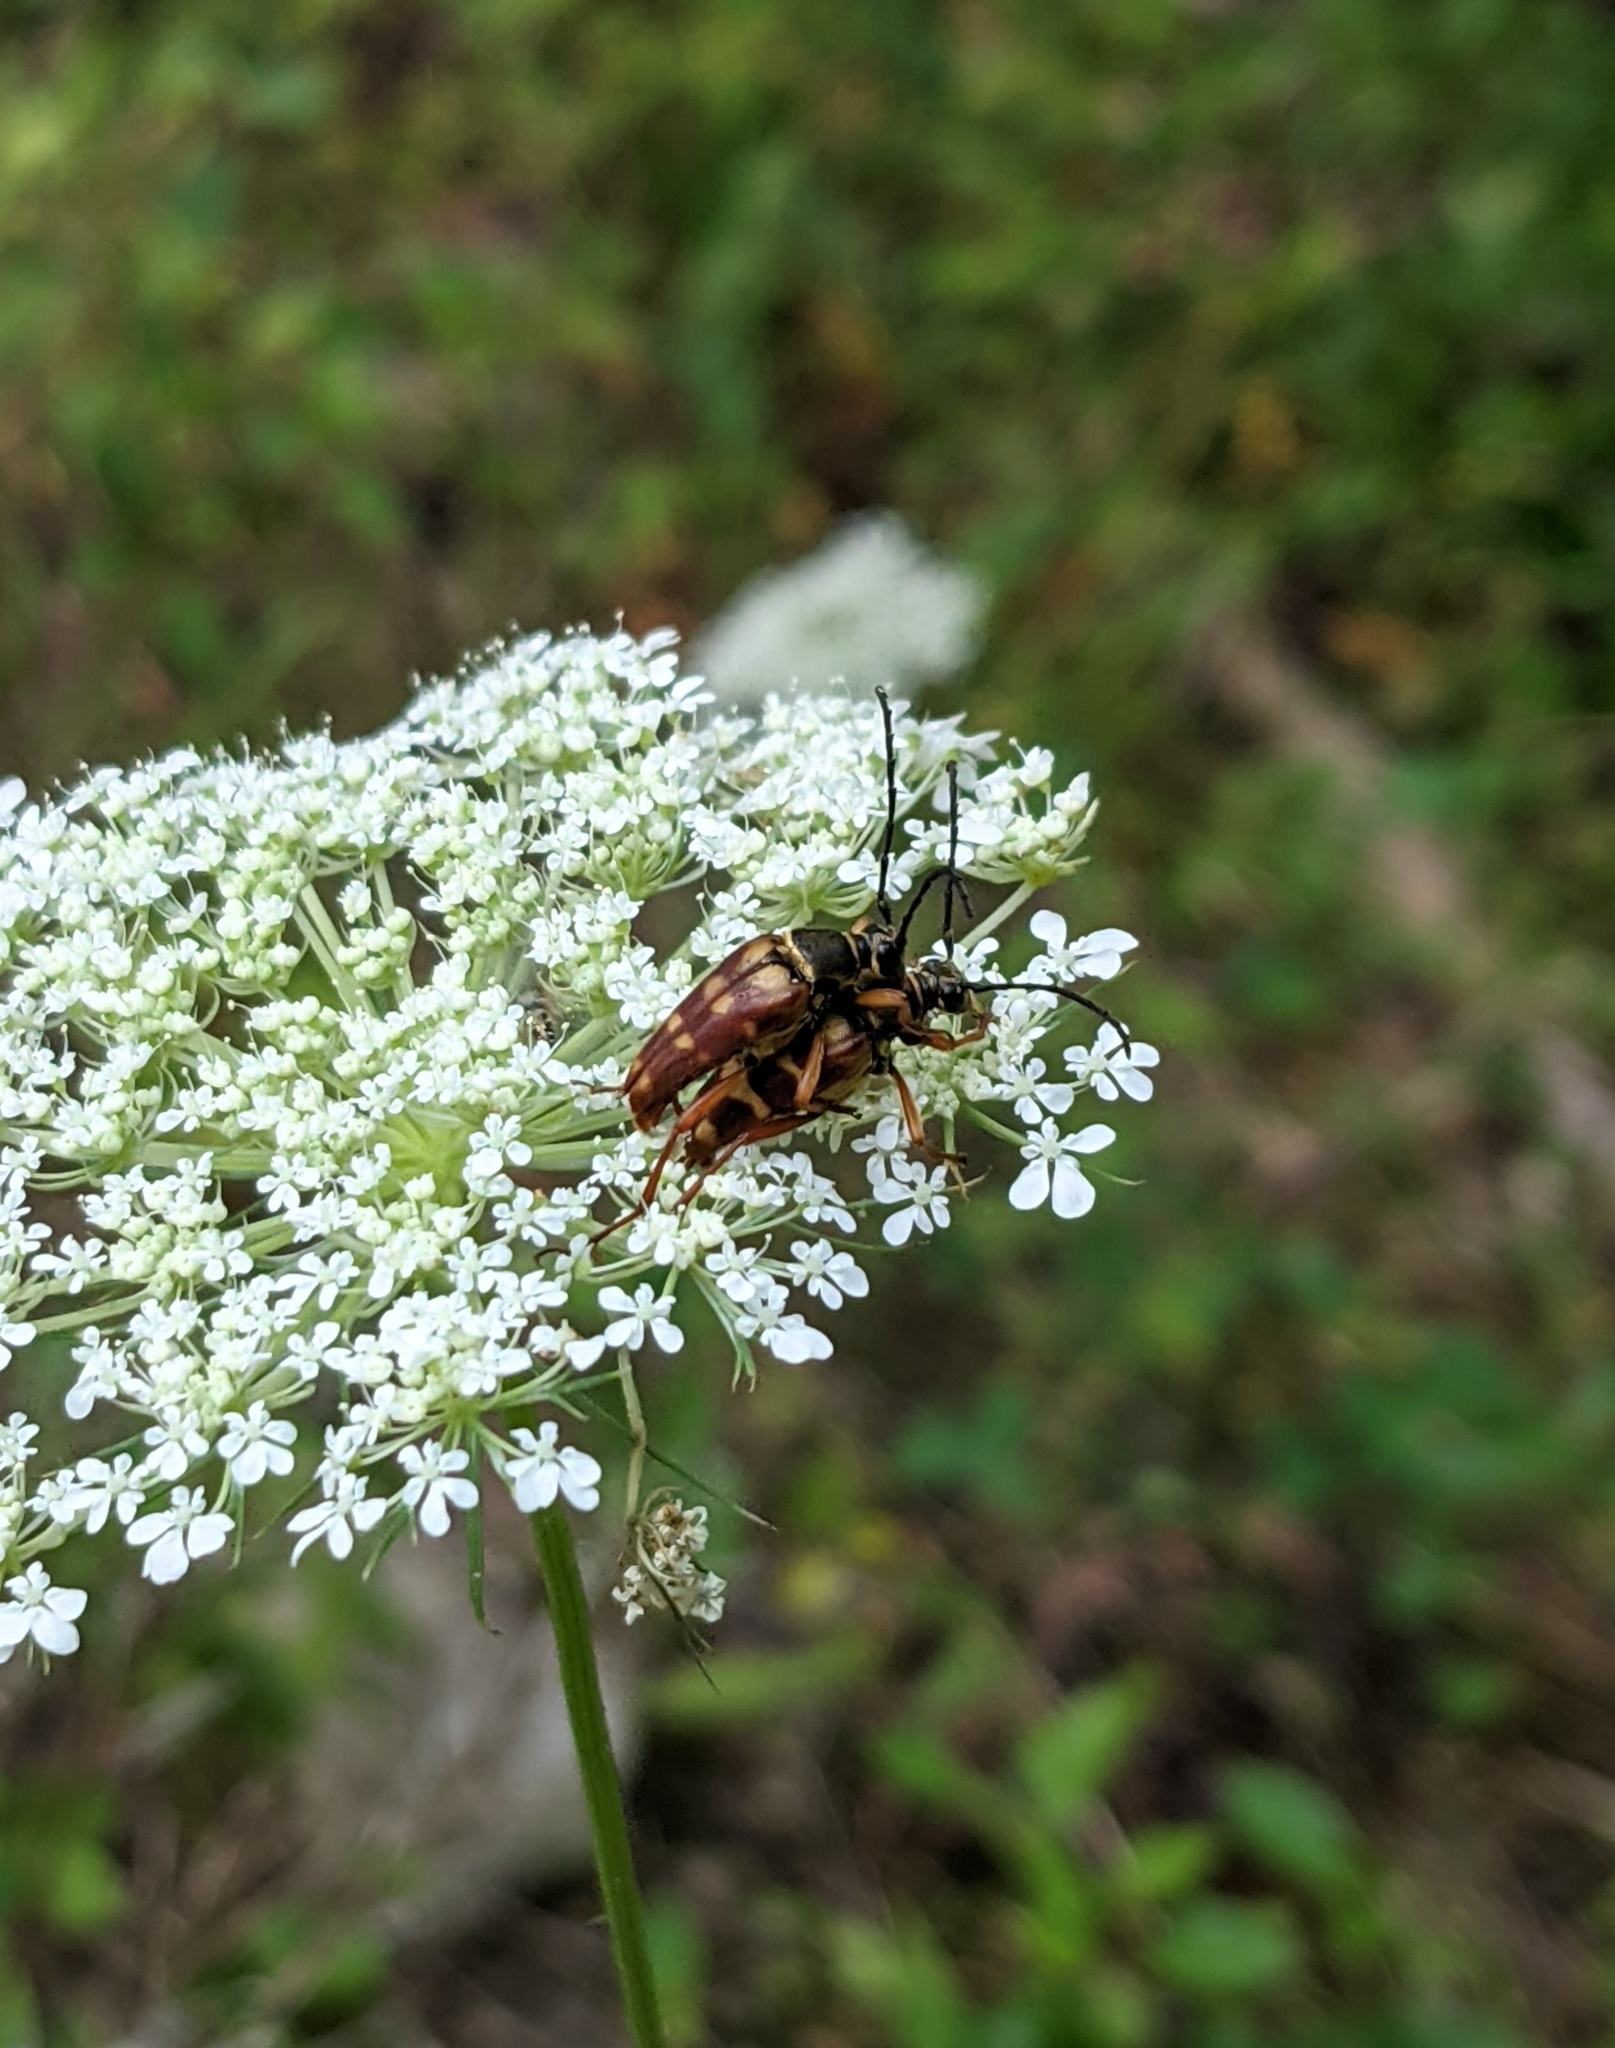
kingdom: Animalia
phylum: Arthropoda
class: Insecta
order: Coleoptera
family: Cerambycidae
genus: Typocerus
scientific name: Typocerus velutinus
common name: Banded longhorn beetle
